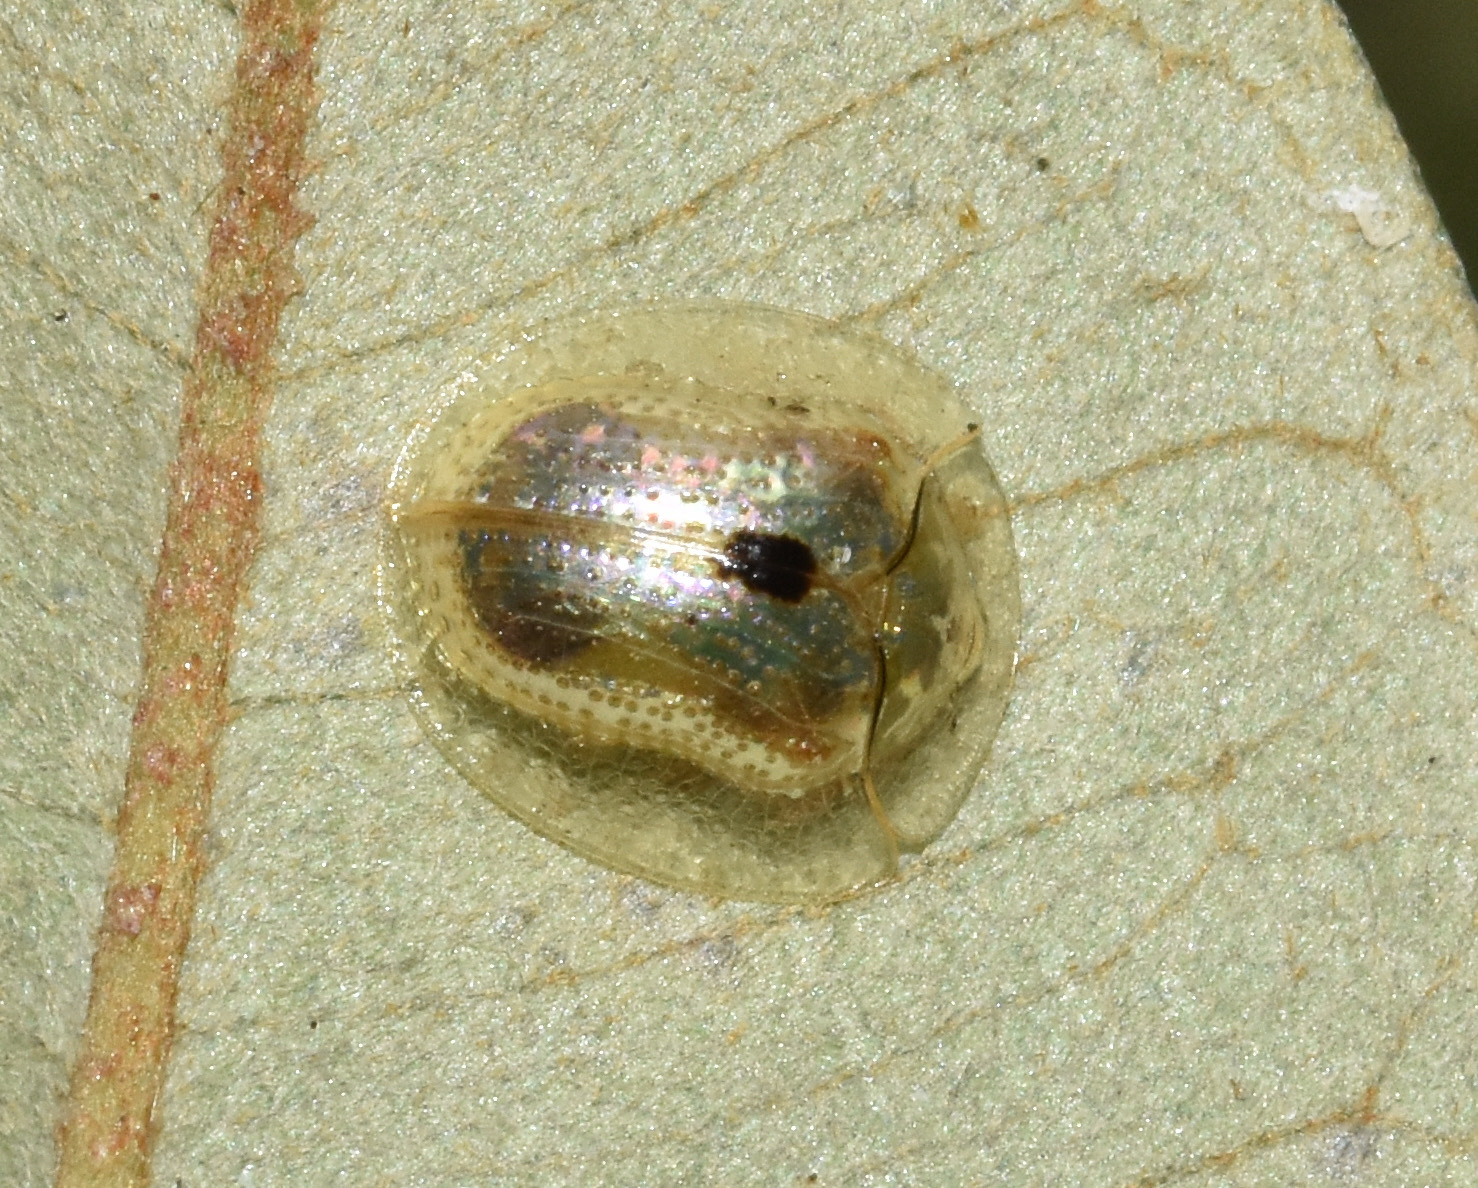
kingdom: Animalia
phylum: Arthropoda
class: Insecta
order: Coleoptera
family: Chrysomelidae
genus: Cassida
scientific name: Cassida unimaculata
